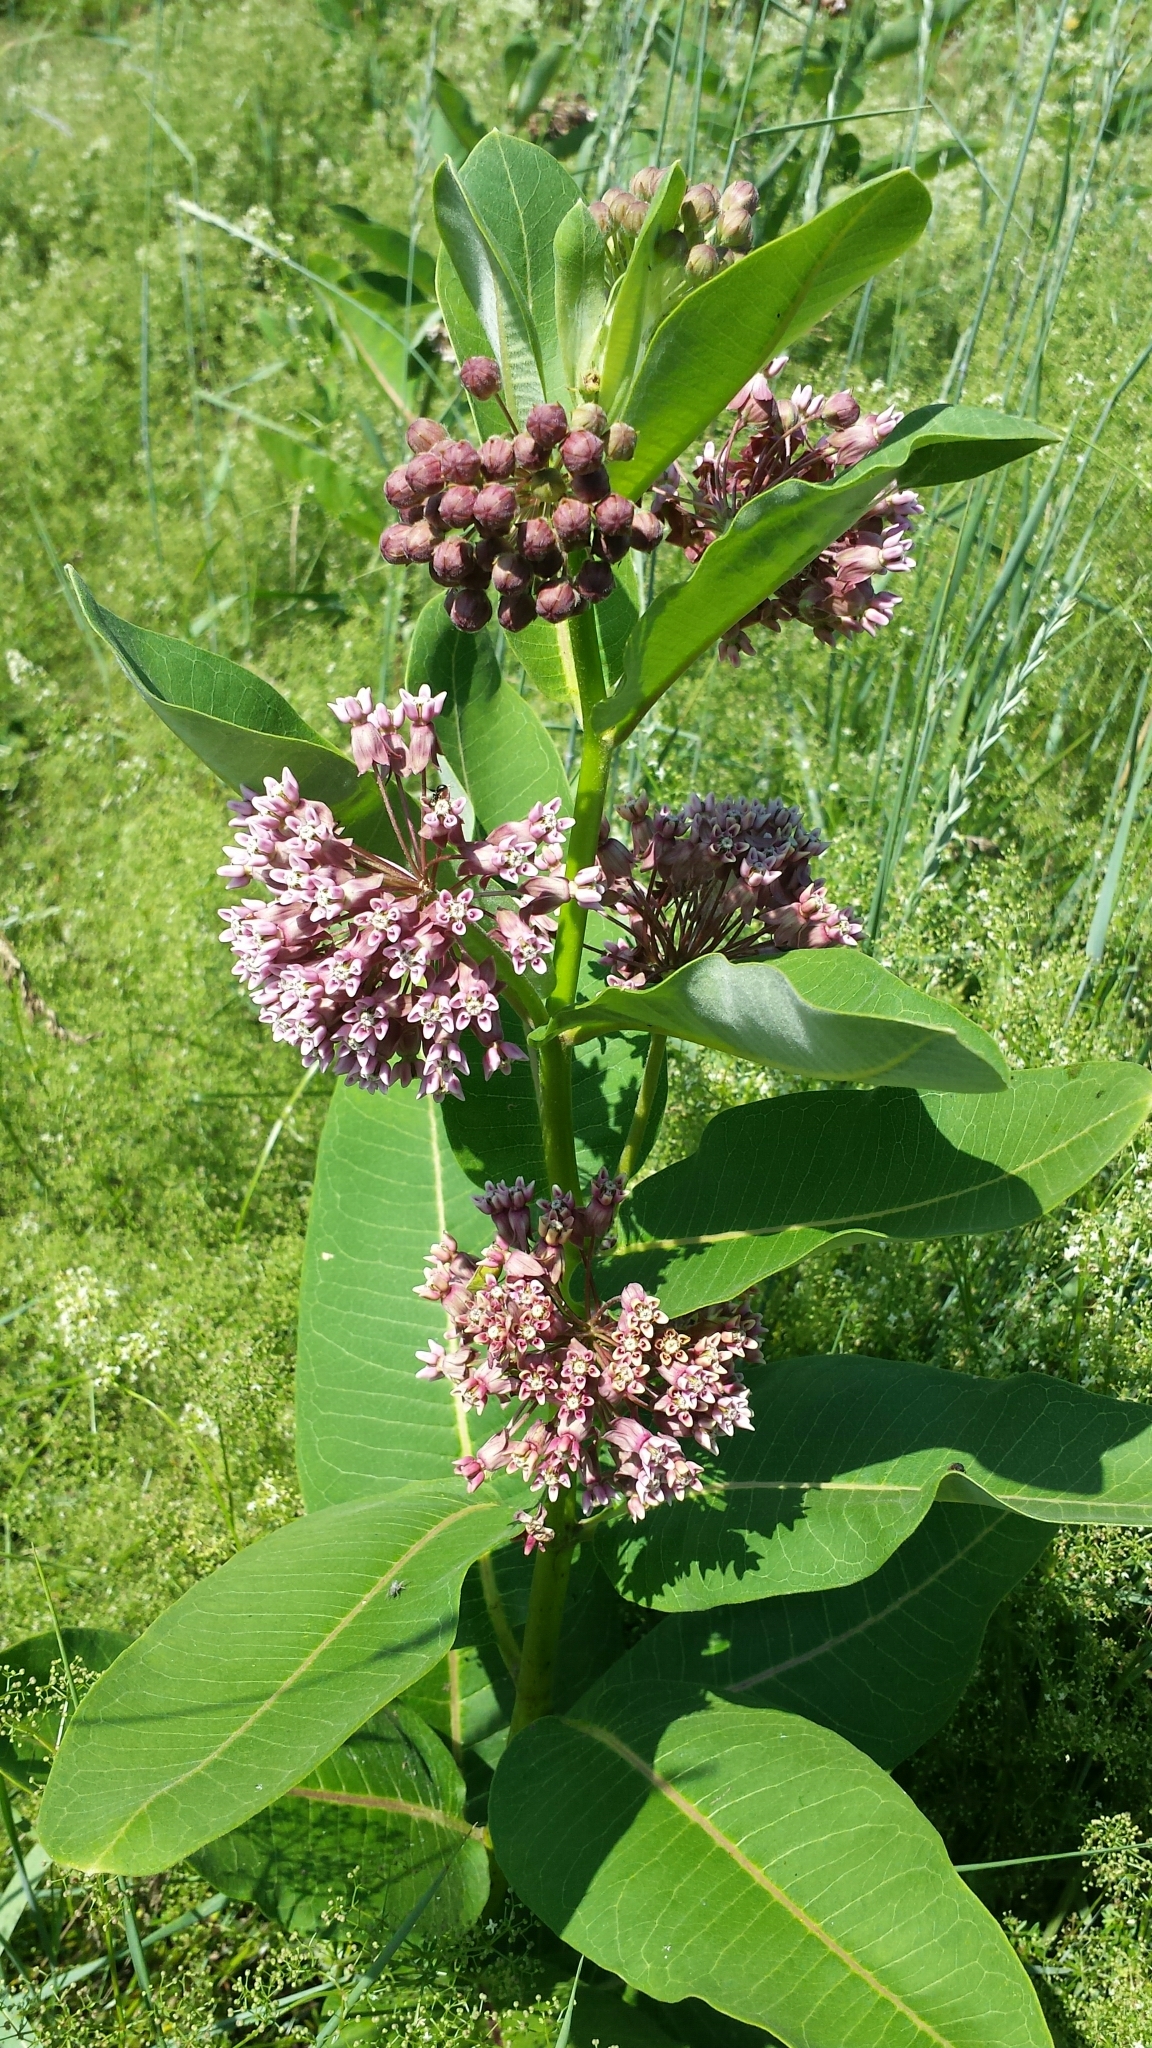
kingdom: Plantae
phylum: Tracheophyta
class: Magnoliopsida
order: Gentianales
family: Apocynaceae
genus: Asclepias
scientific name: Asclepias syriaca
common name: Common milkweed
